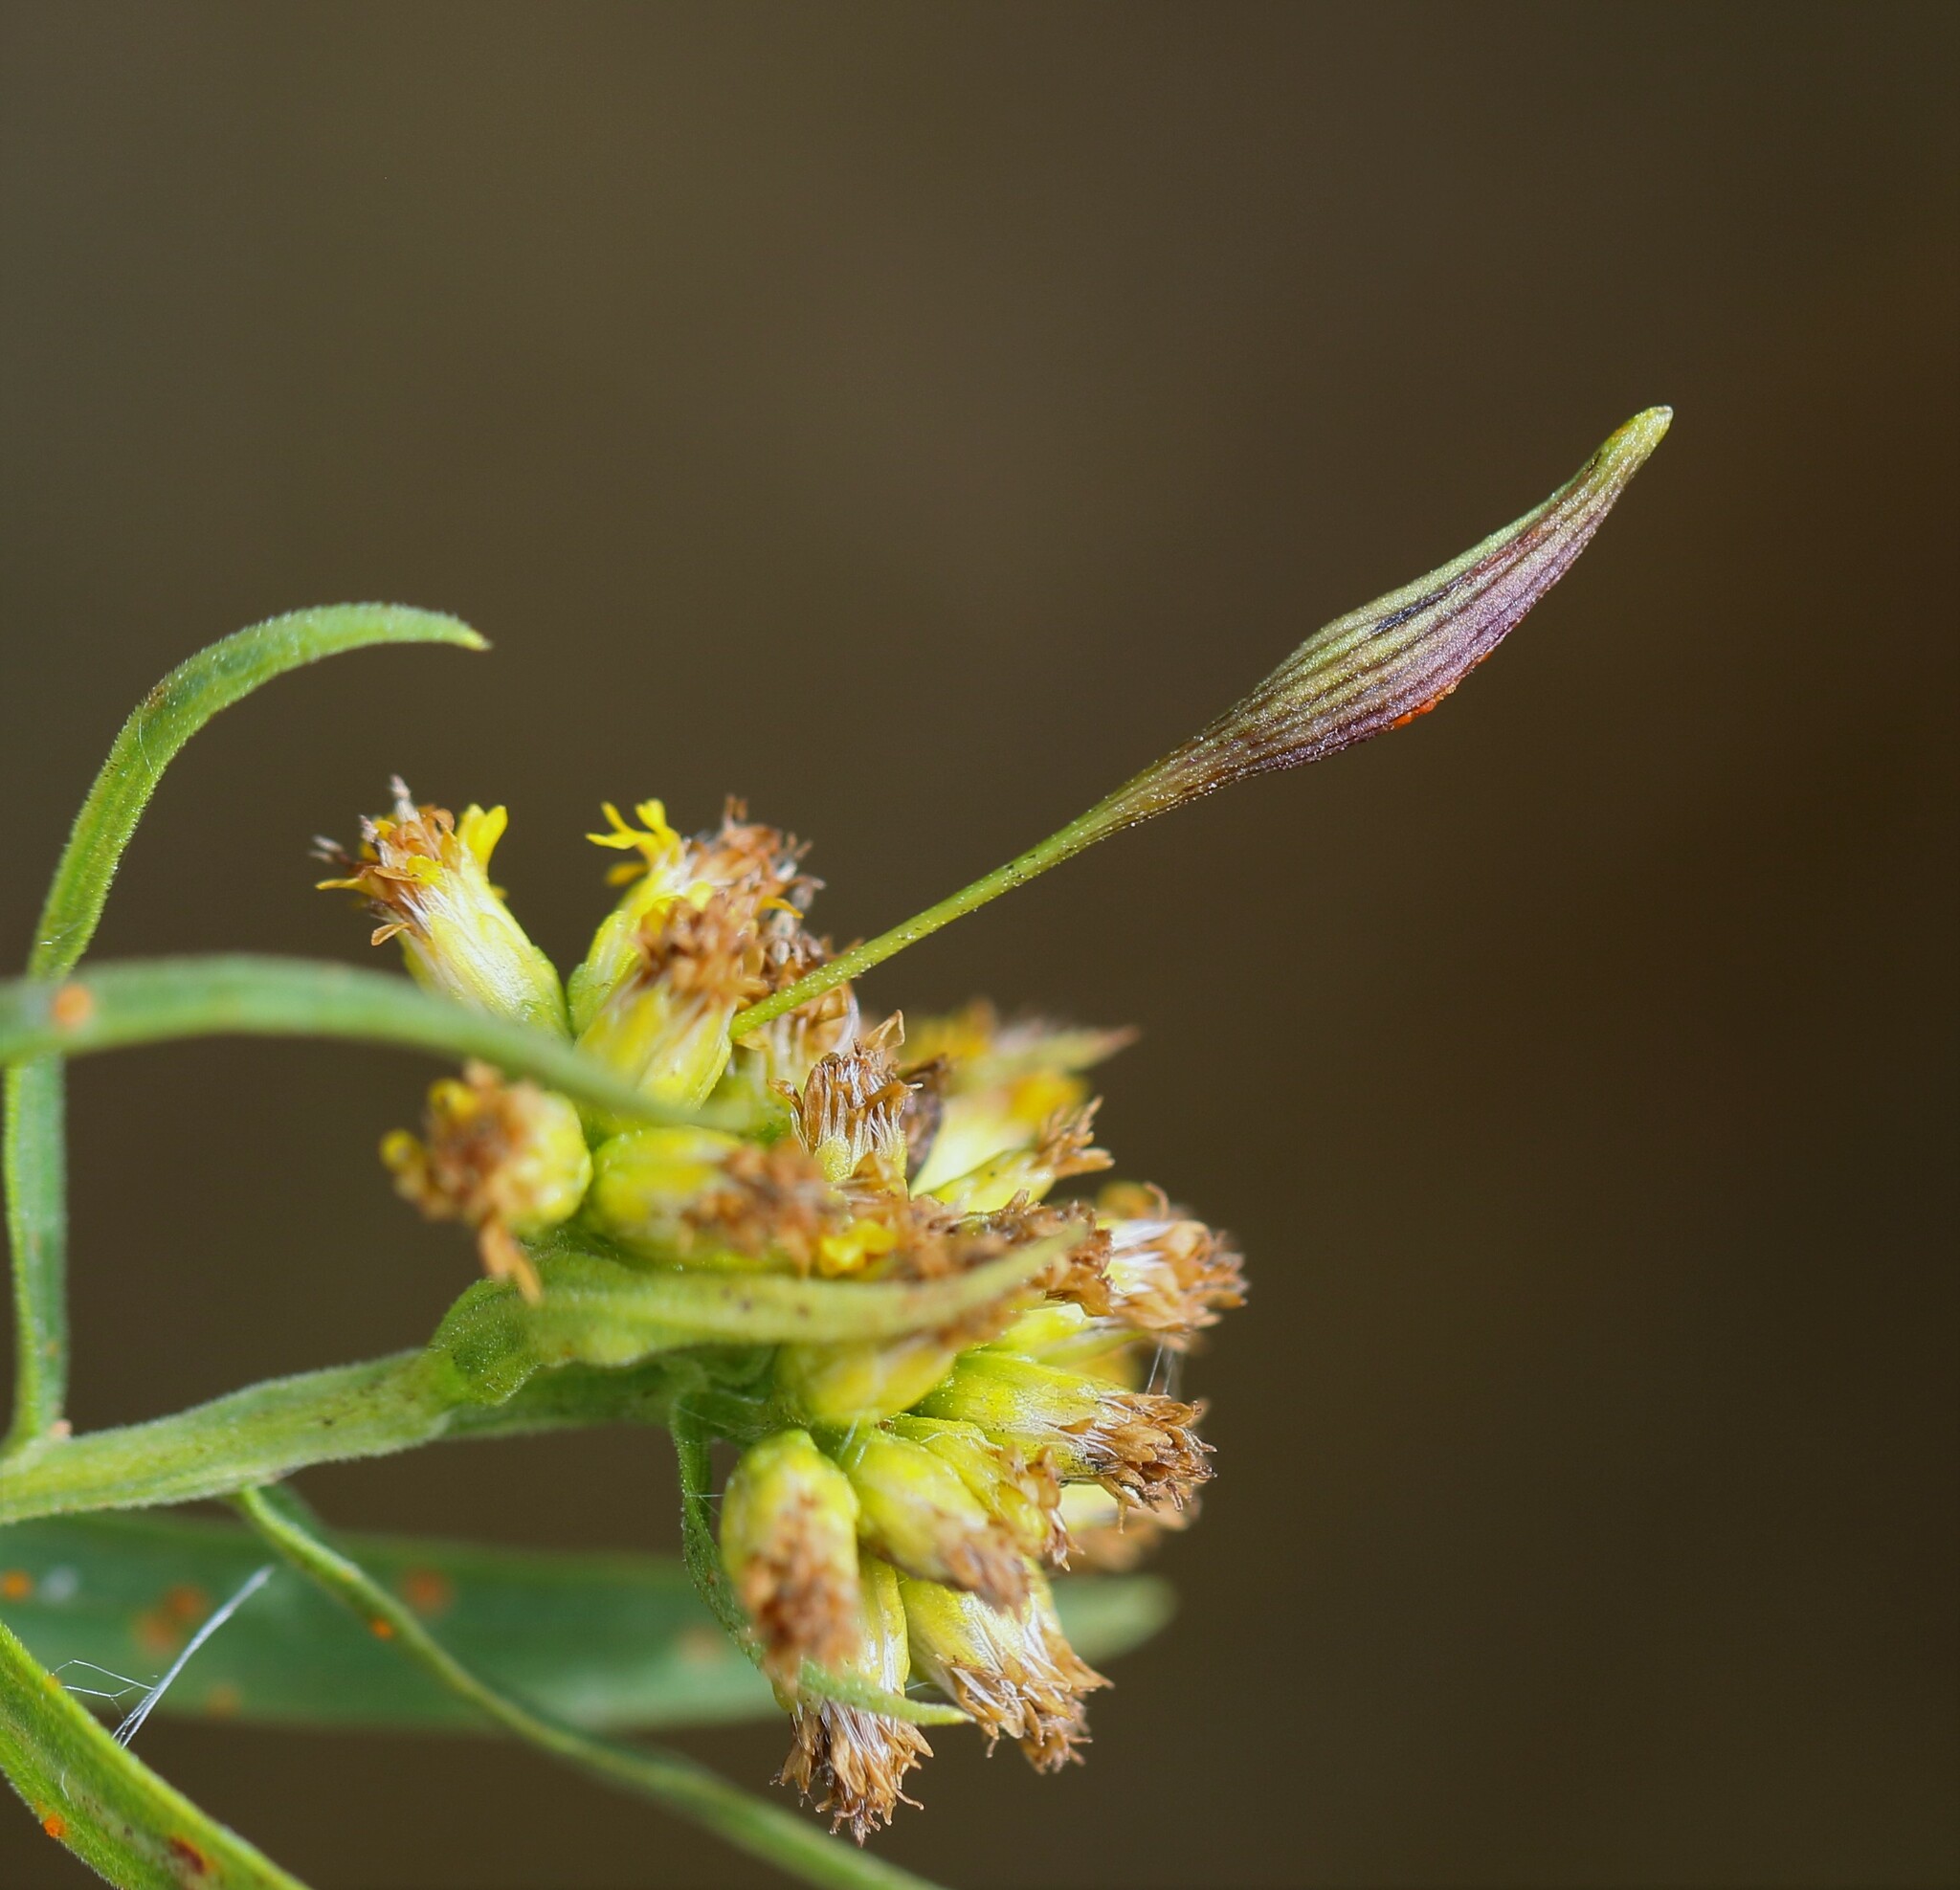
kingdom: Animalia
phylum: Arthropoda
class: Insecta
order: Diptera
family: Cecidomyiidae
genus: Rhopalomyia
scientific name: Rhopalomyia pedicellata
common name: Goldentop pedicellate gall midge
